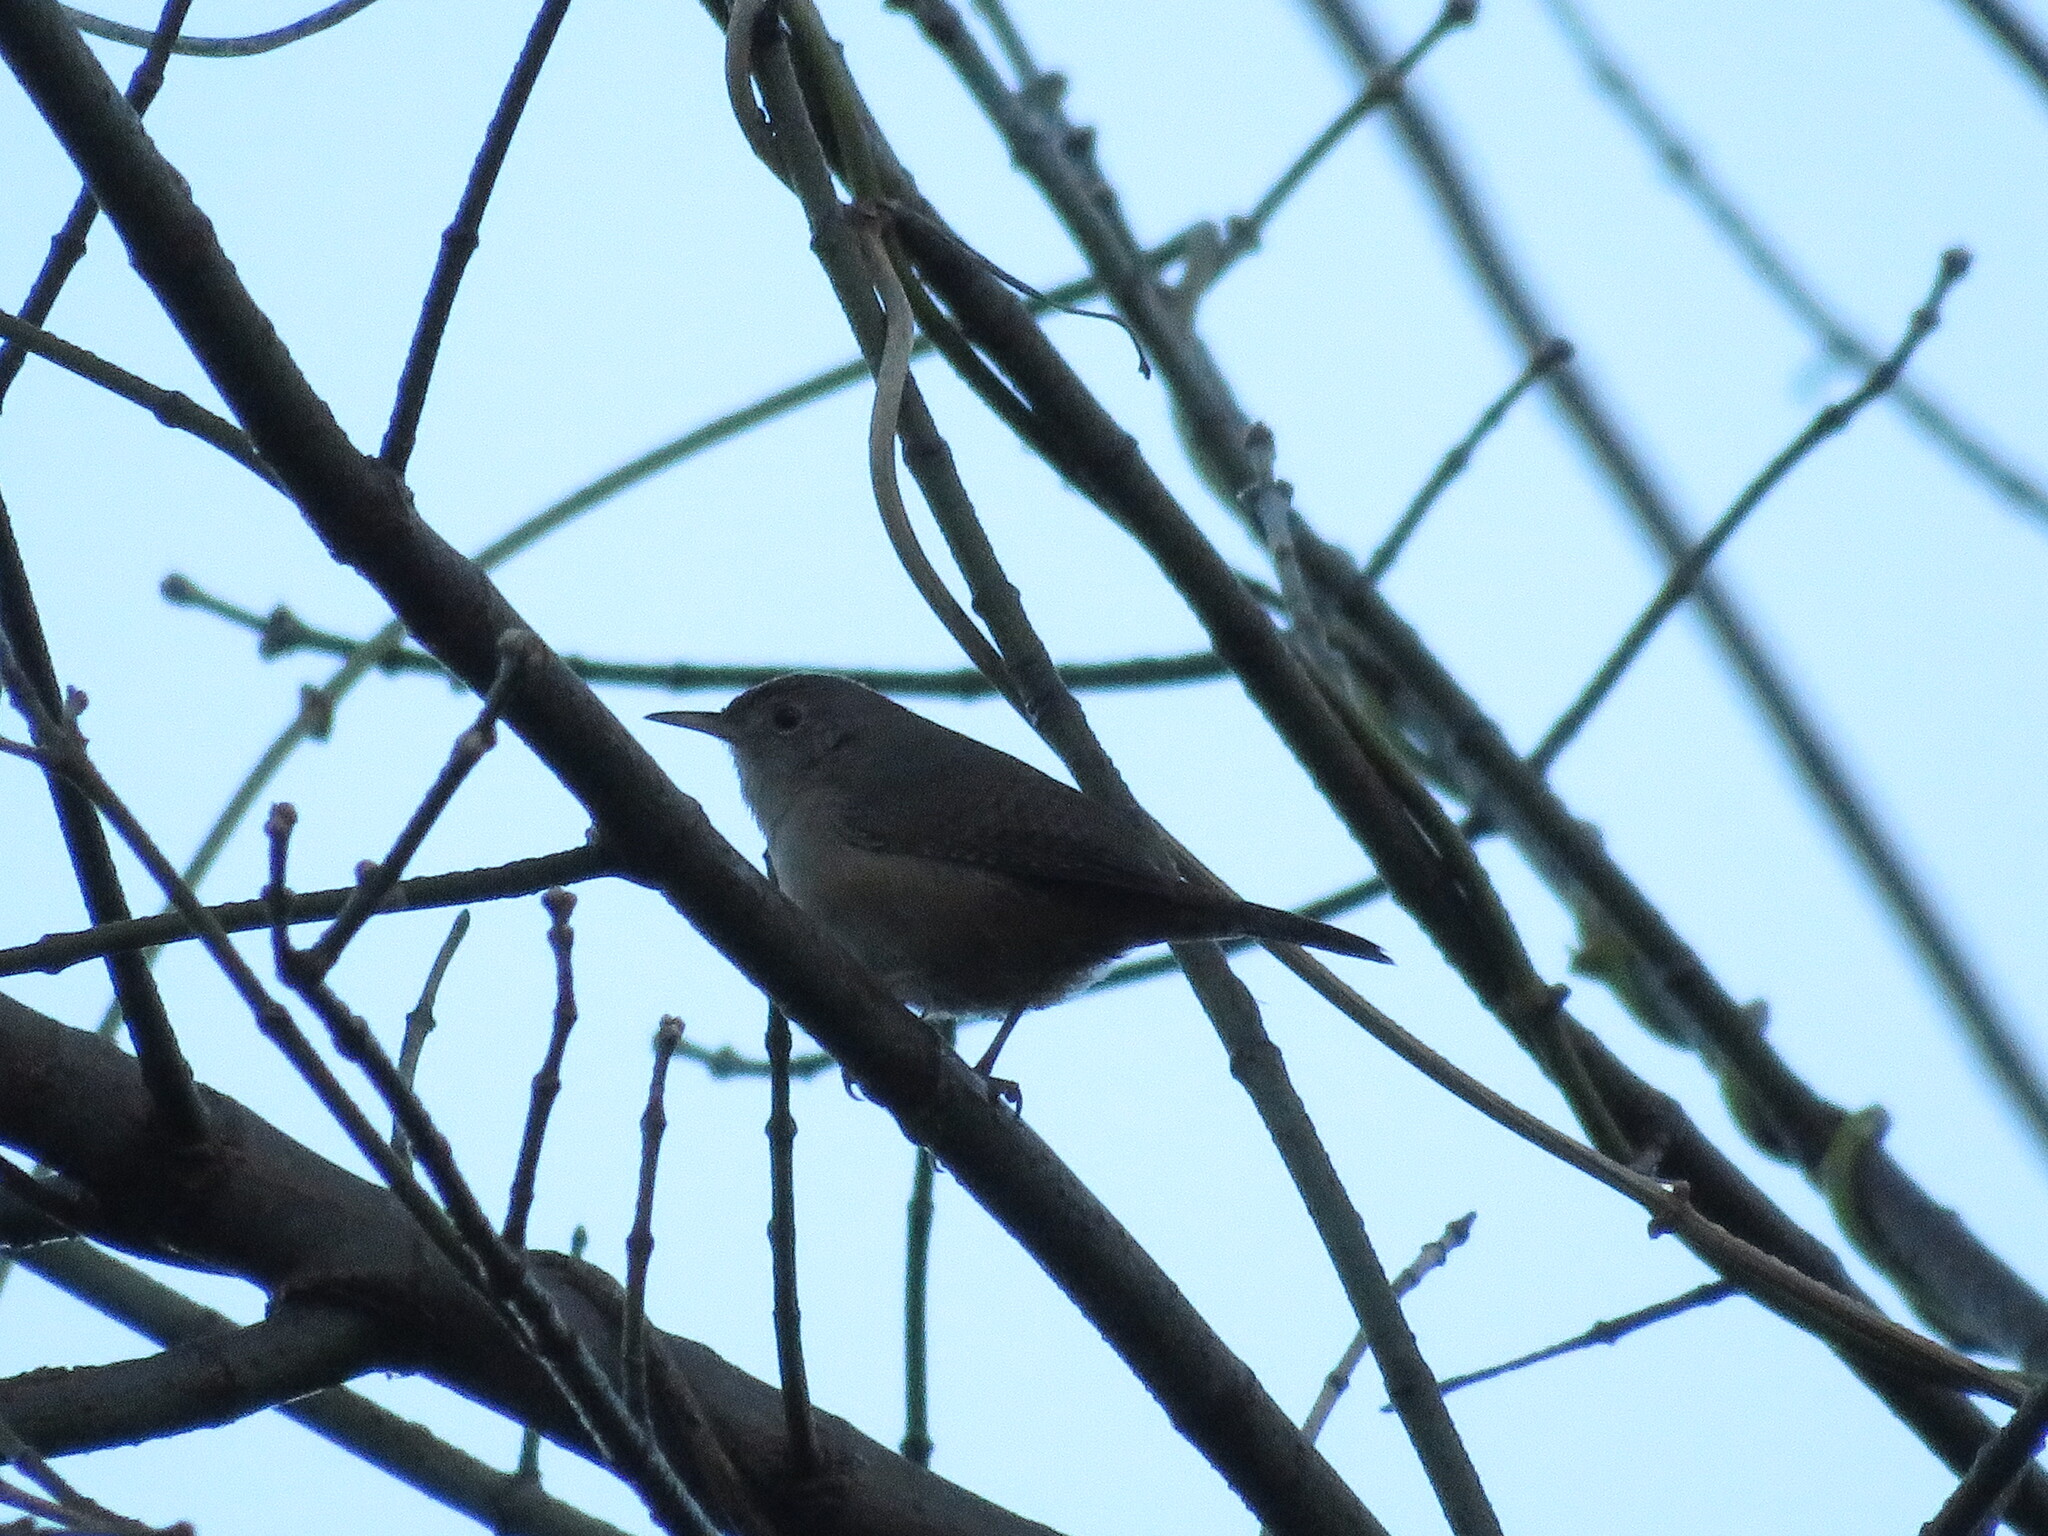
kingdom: Animalia
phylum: Chordata
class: Aves
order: Passeriformes
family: Troglodytidae
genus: Troglodytes
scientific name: Troglodytes aedon
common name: House wren
